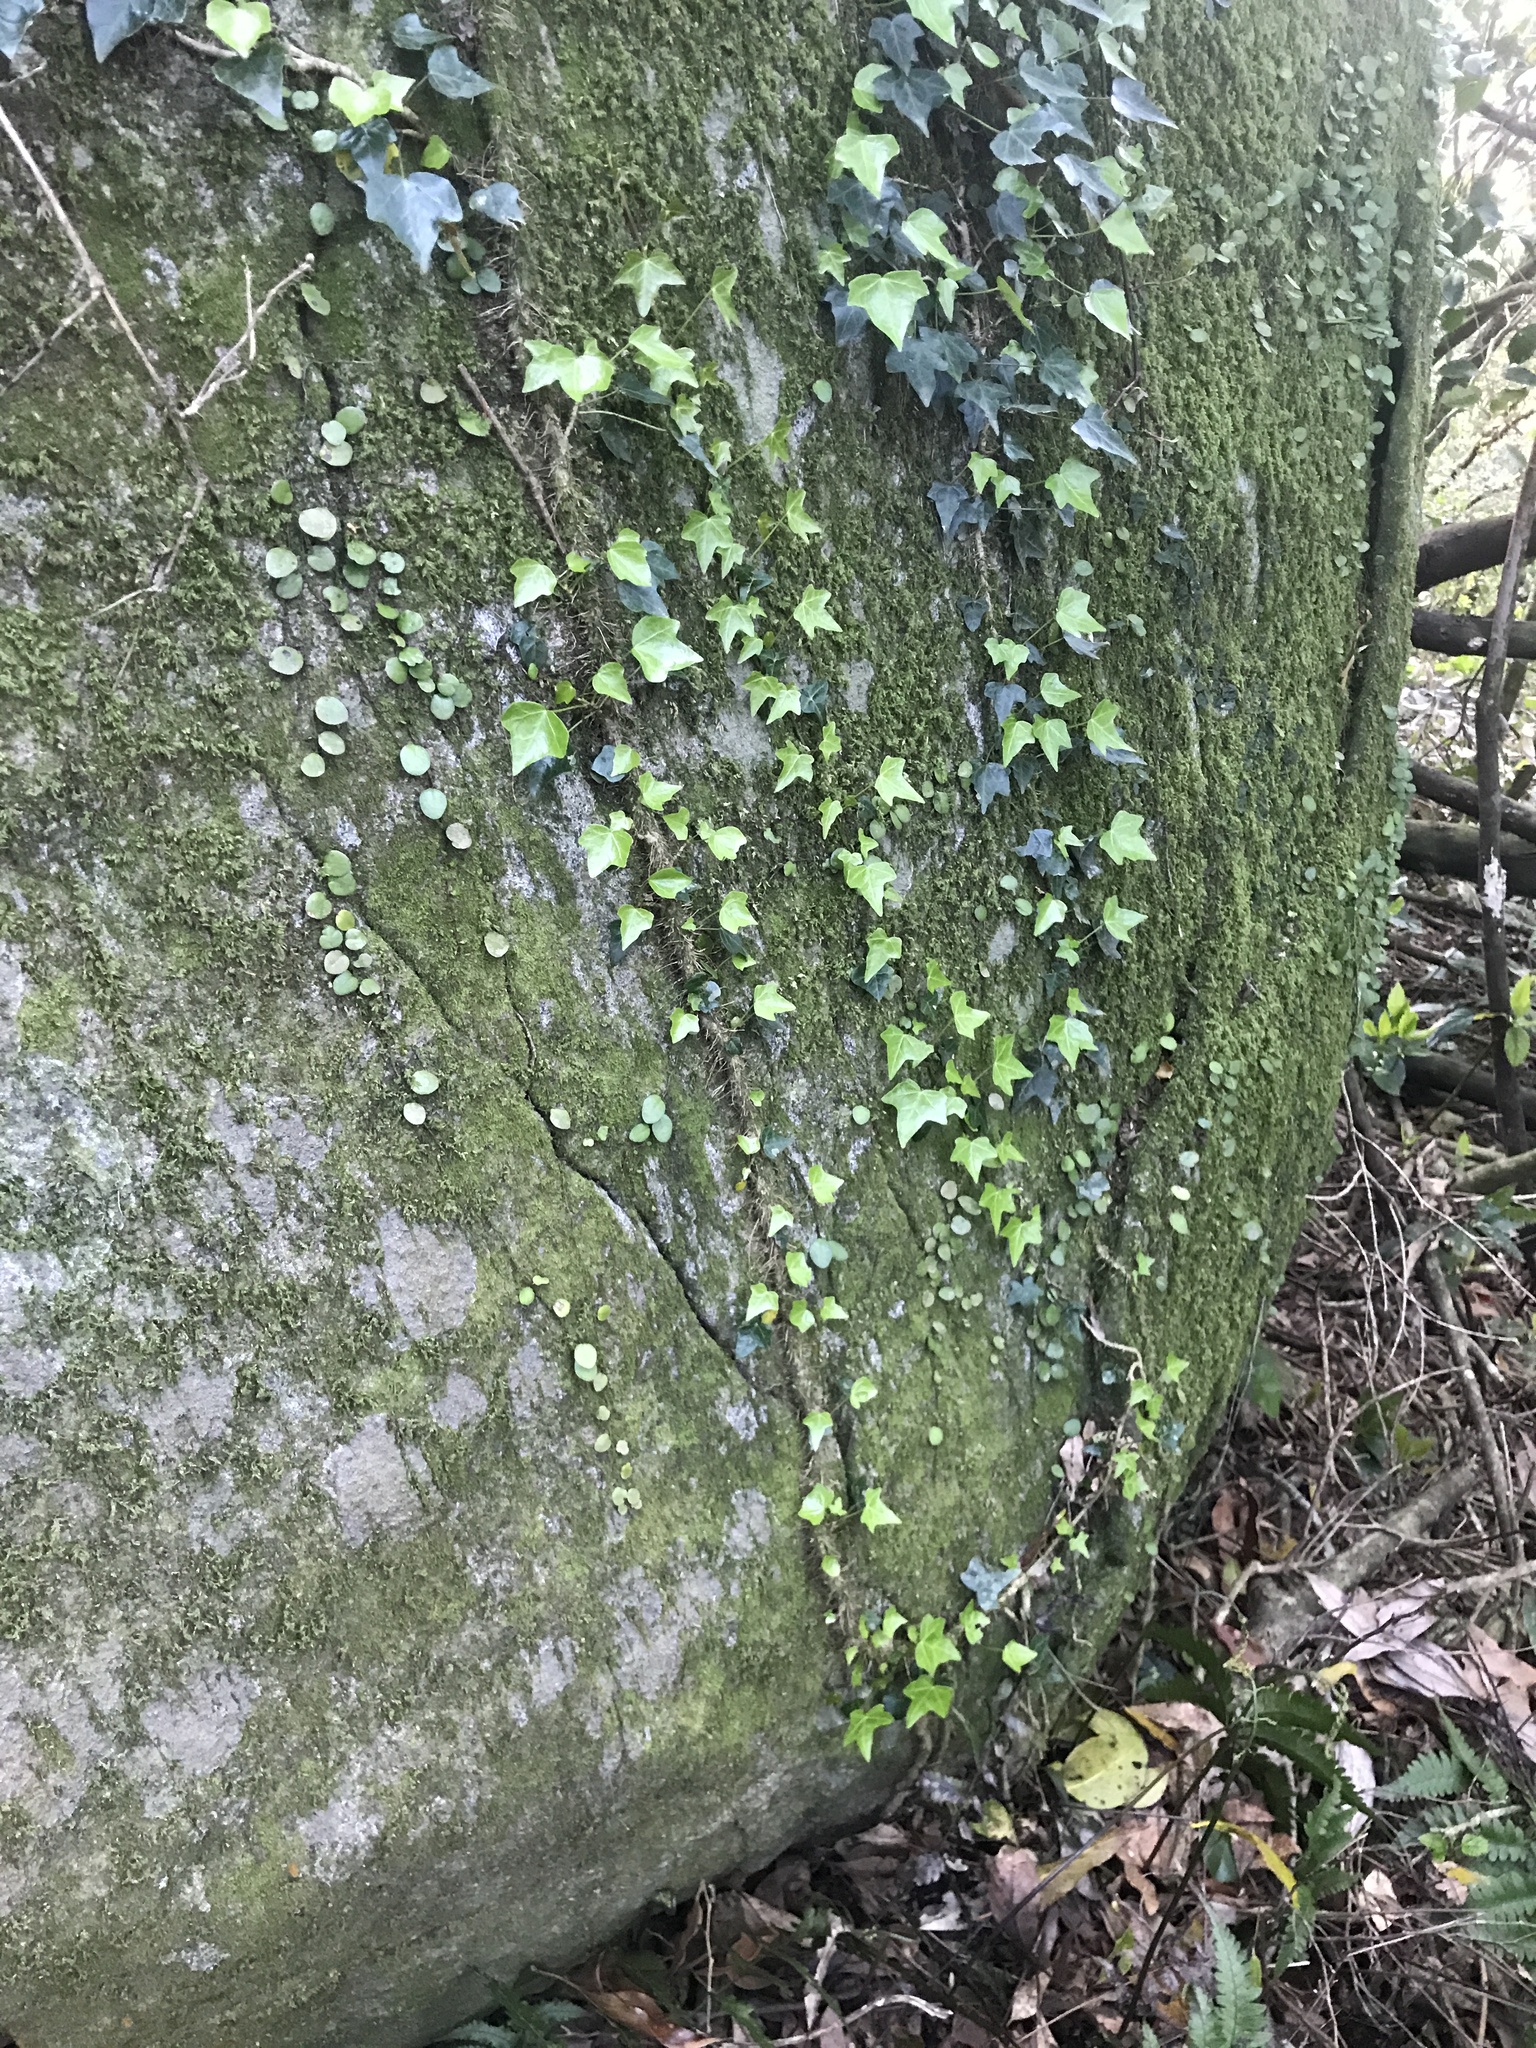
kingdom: Plantae
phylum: Tracheophyta
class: Magnoliopsida
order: Apiales
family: Araliaceae
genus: Hedera
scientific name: Hedera rhombea
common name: Japanese ivy
